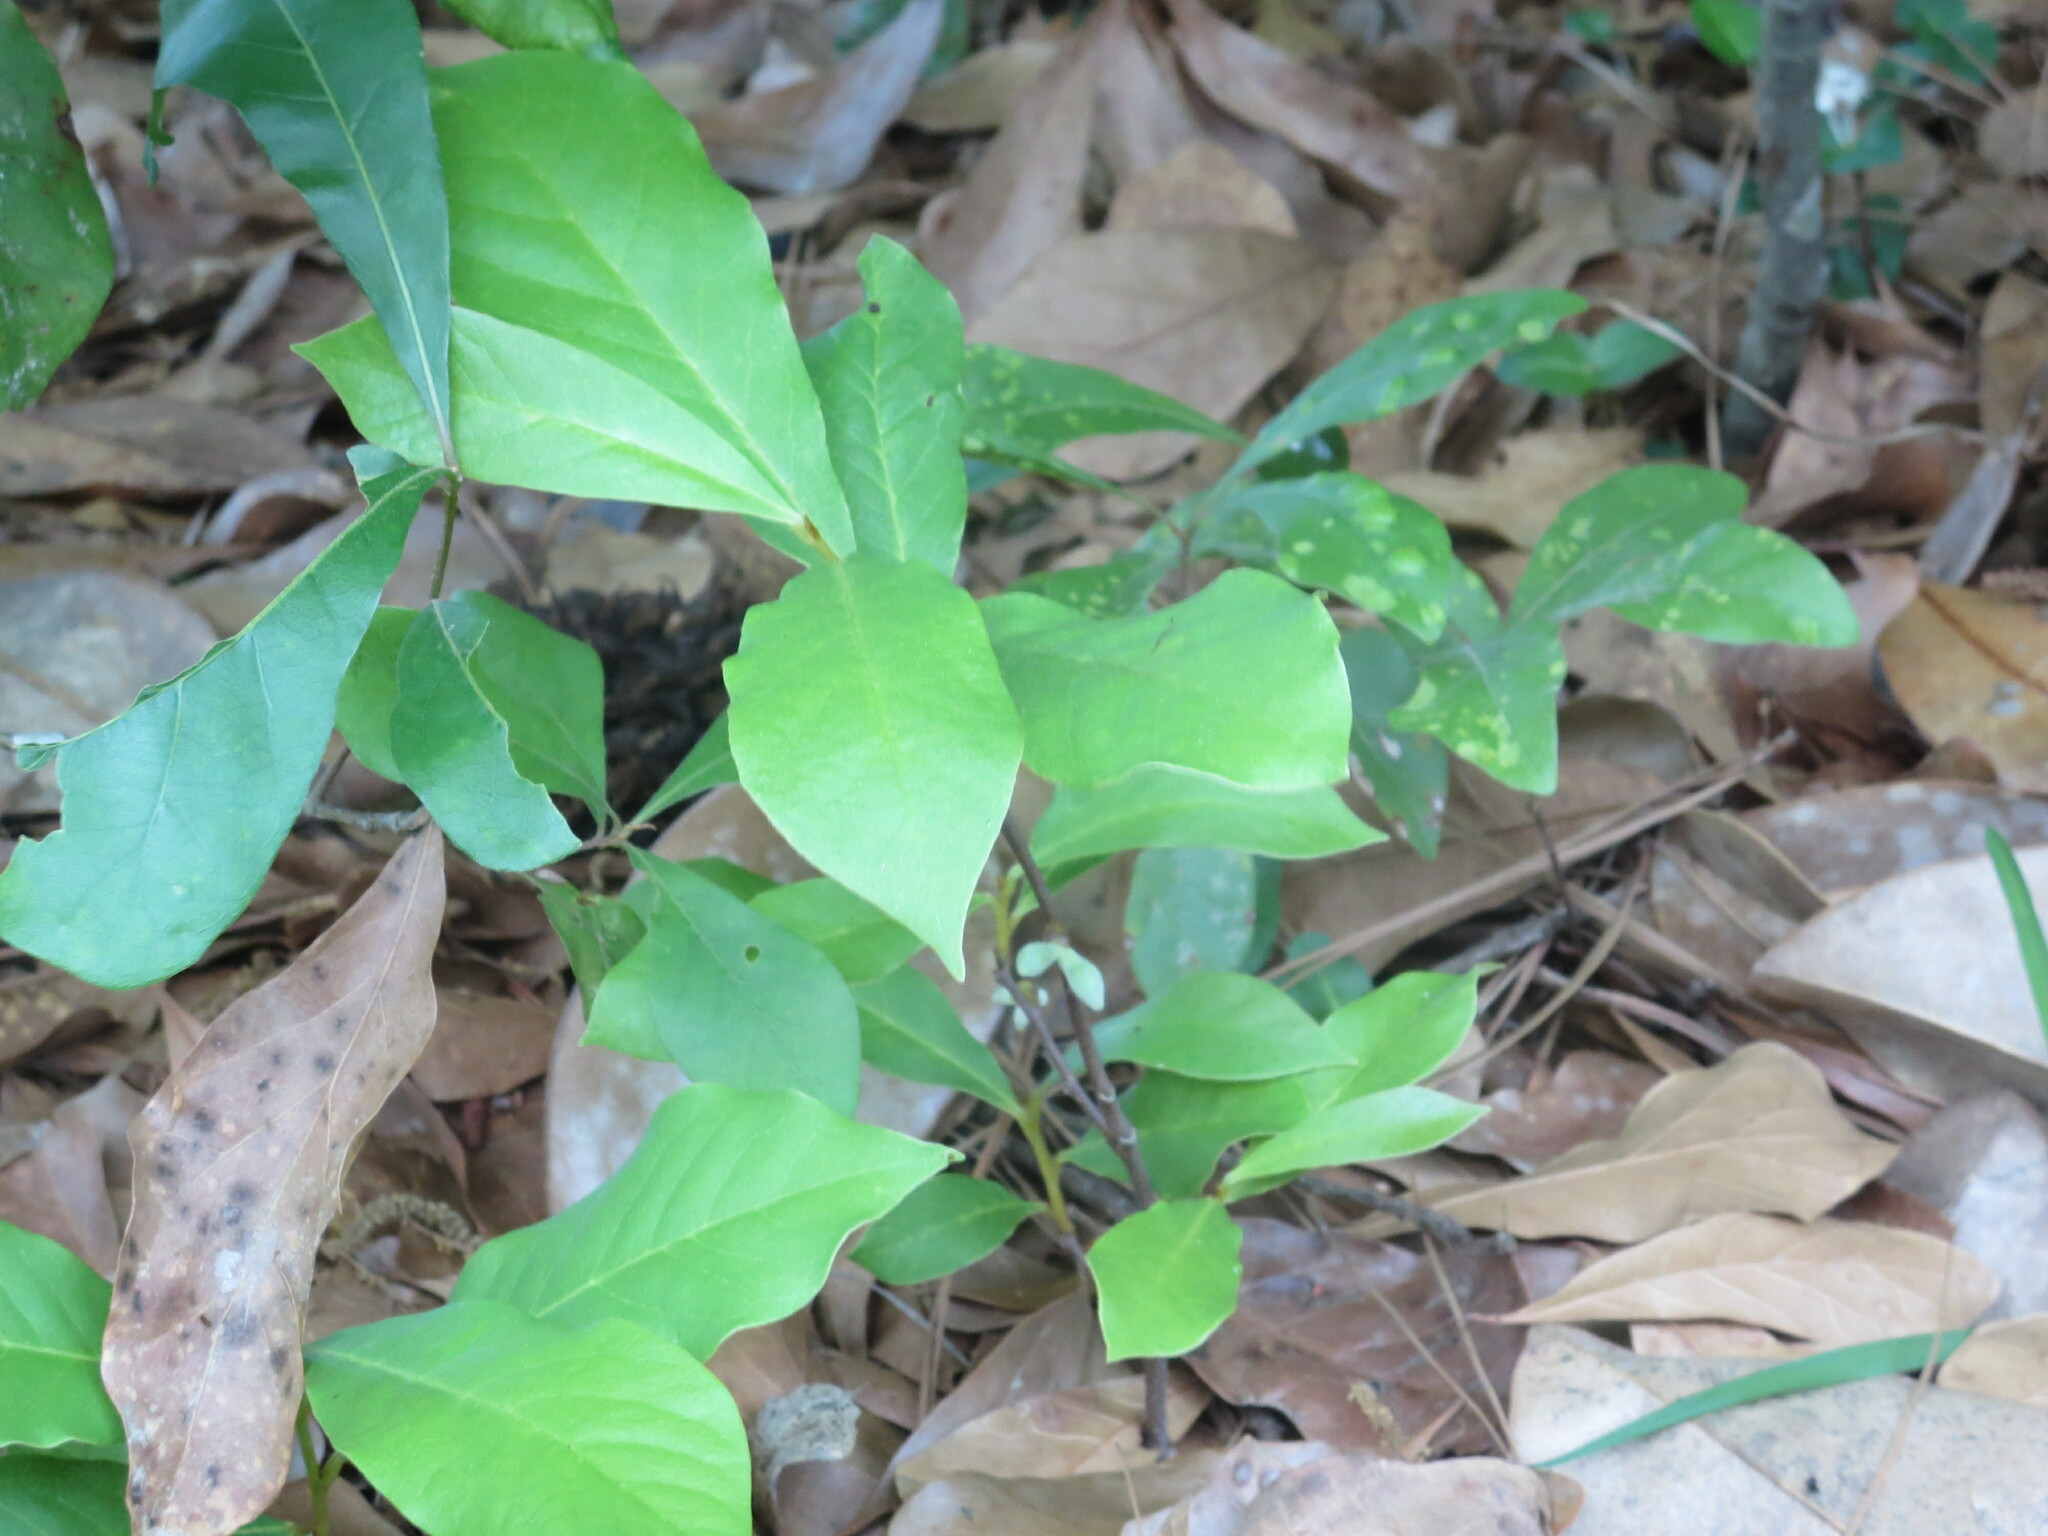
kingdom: Plantae
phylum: Tracheophyta
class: Magnoliopsida
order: Magnoliales
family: Annonaceae
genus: Asimina
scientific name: Asimina parviflora
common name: Dwarf pawpaw
